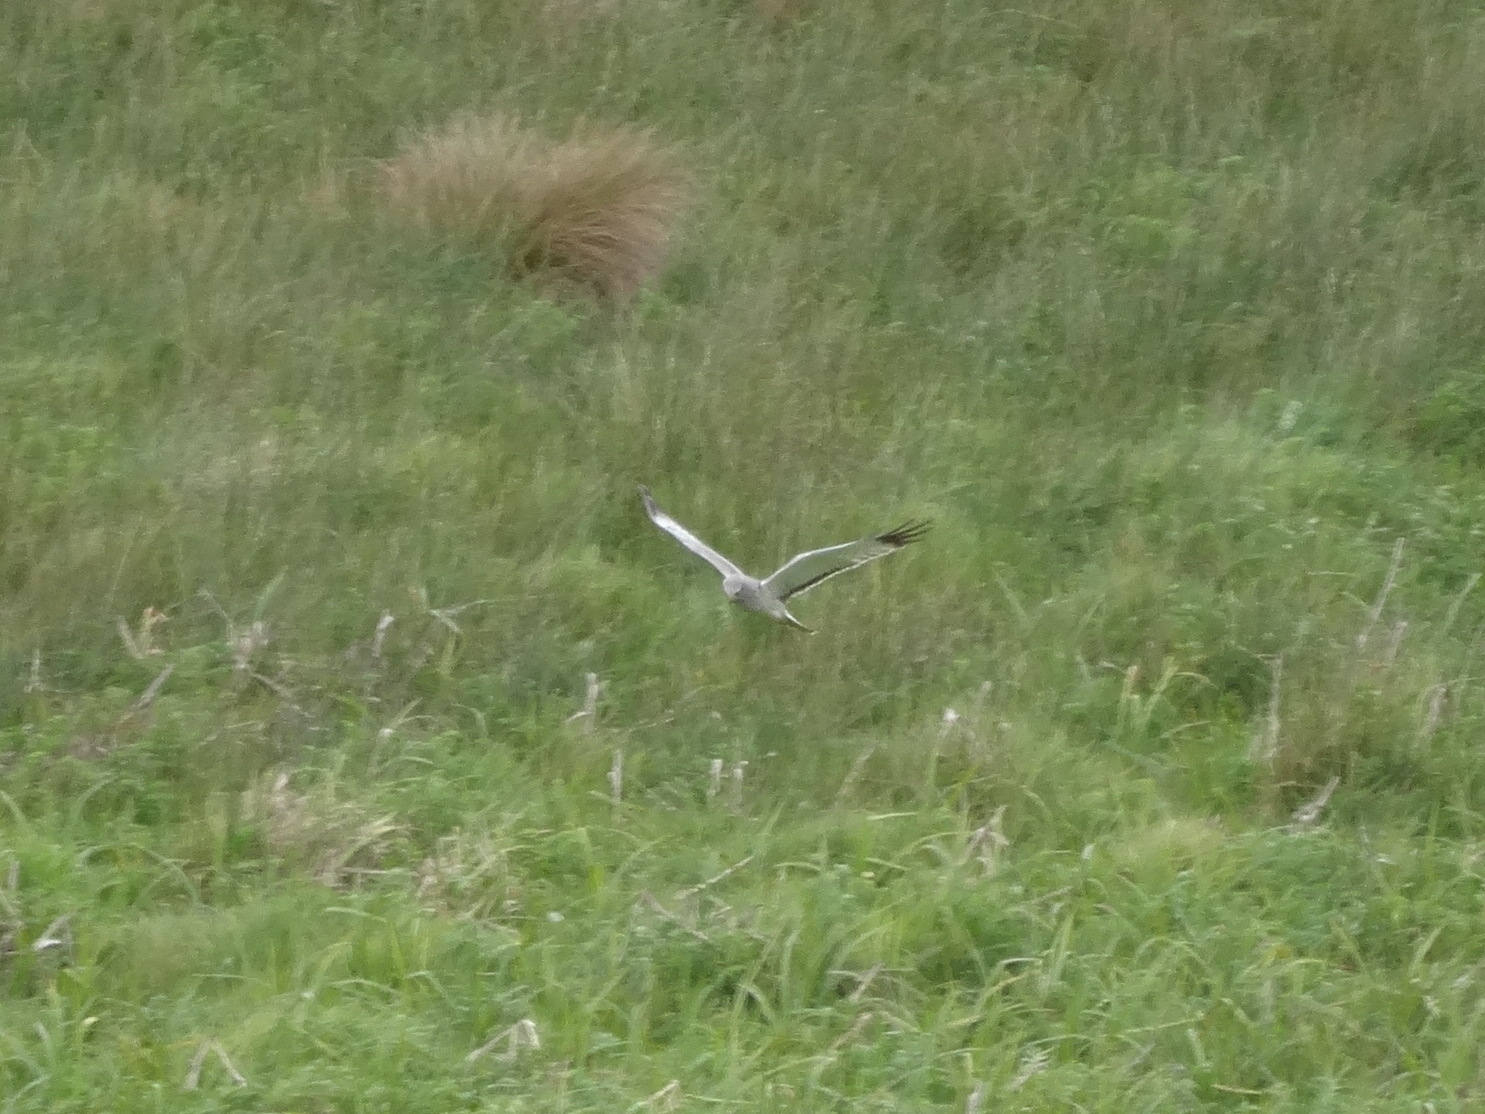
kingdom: Animalia
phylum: Chordata
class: Aves
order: Accipitriformes
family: Accipitridae
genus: Circus
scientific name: Circus cyaneus
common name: Hen harrier
